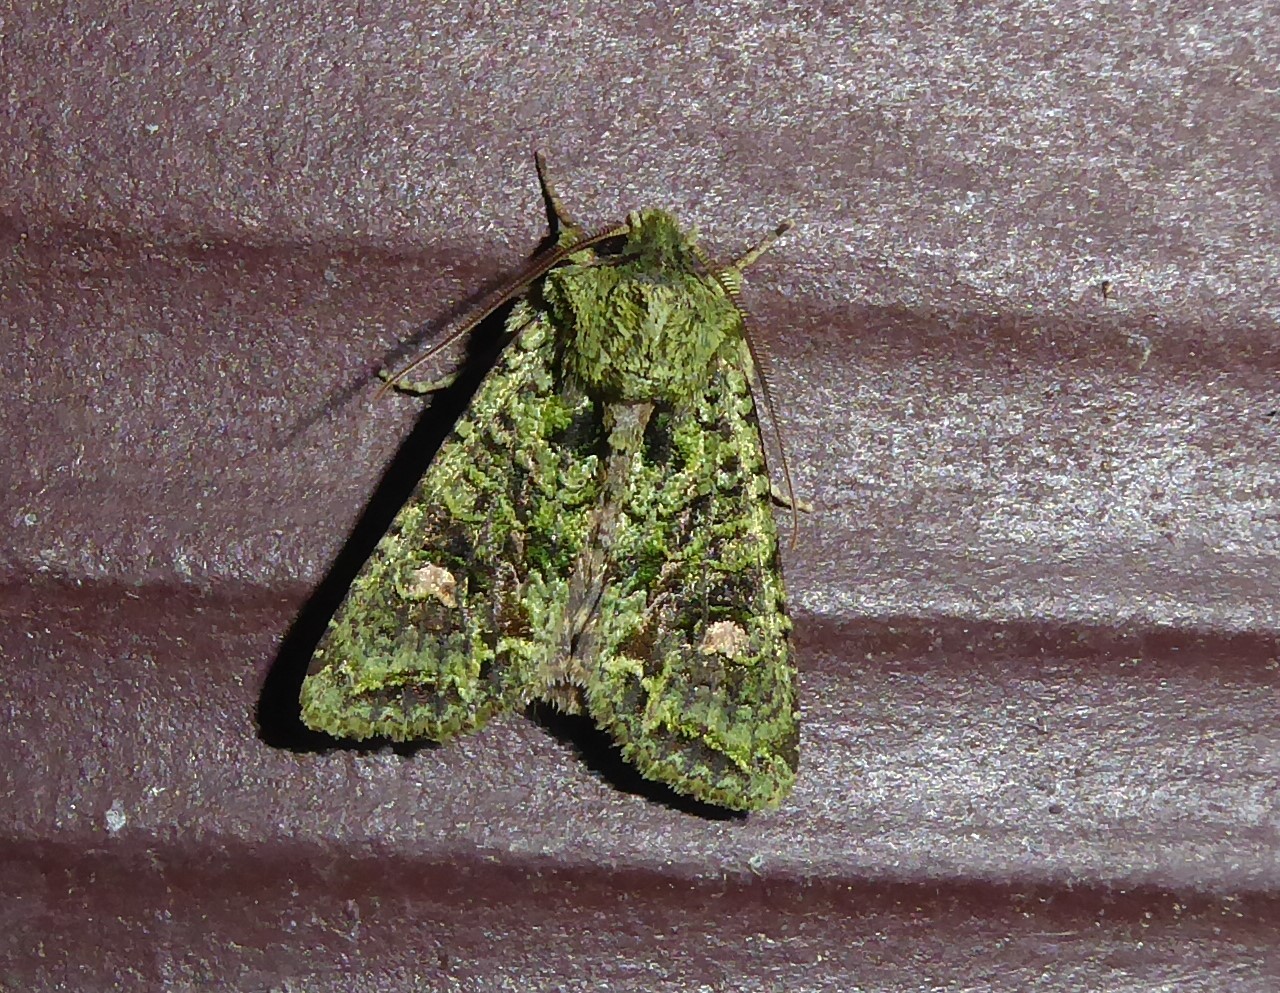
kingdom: Animalia
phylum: Arthropoda
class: Insecta
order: Lepidoptera
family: Noctuidae
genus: Ichneutica
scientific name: Ichneutica
